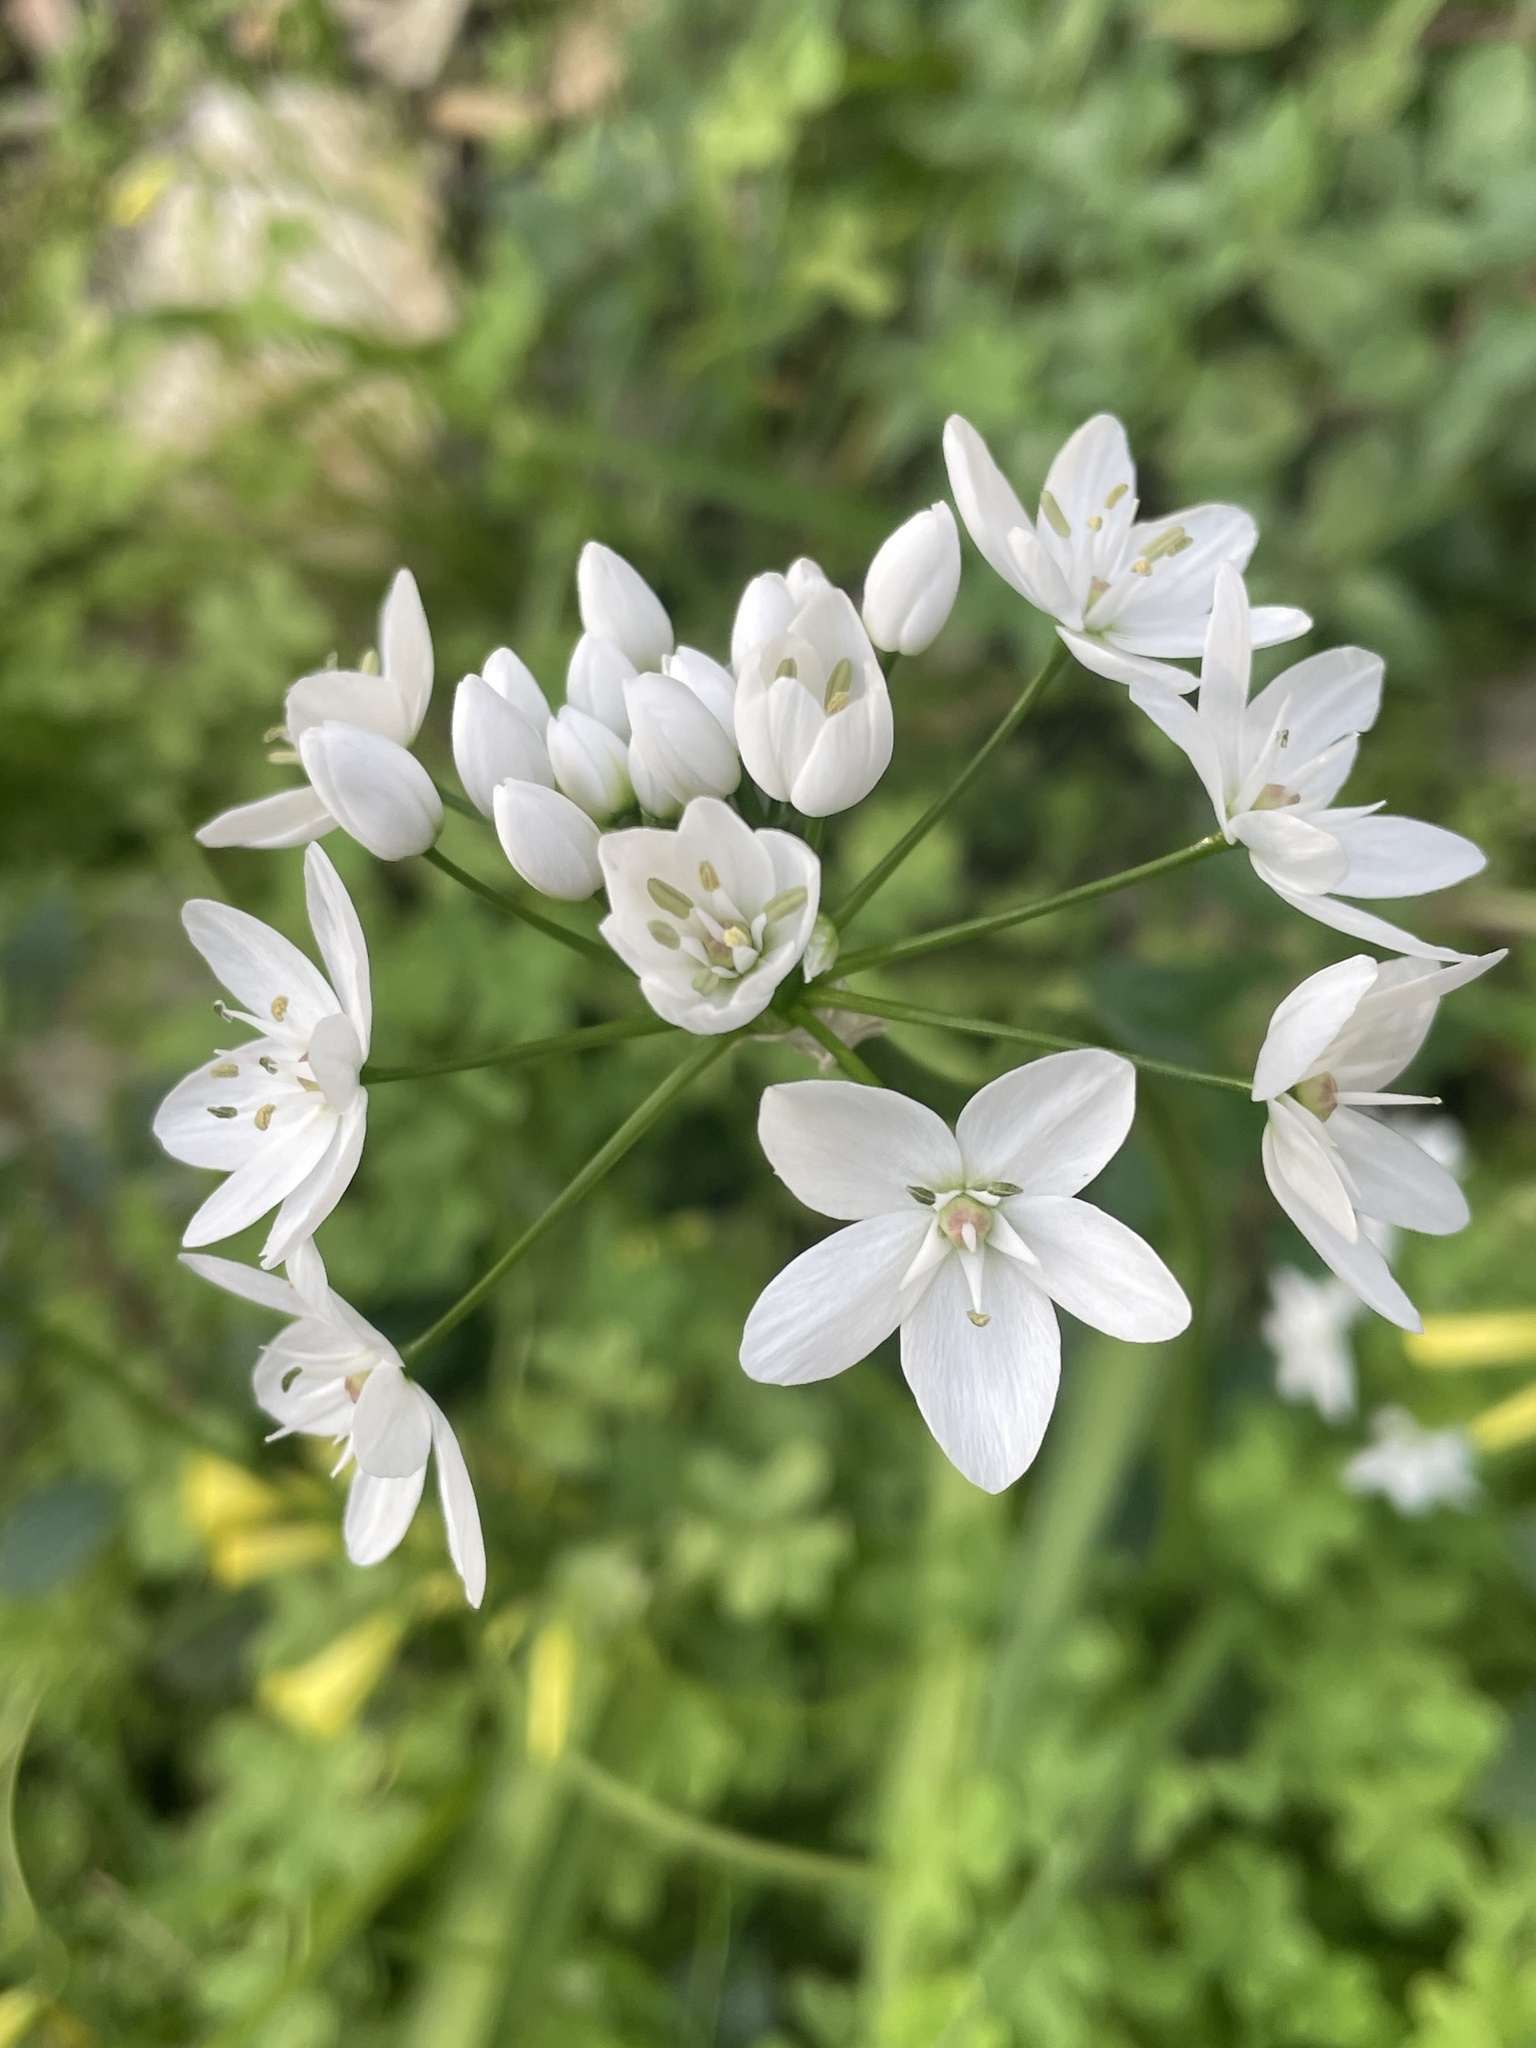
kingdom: Plantae
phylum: Tracheophyta
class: Liliopsida
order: Asparagales
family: Amaryllidaceae
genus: Allium
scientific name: Allium neapolitanum
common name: Neapolitan garlic
